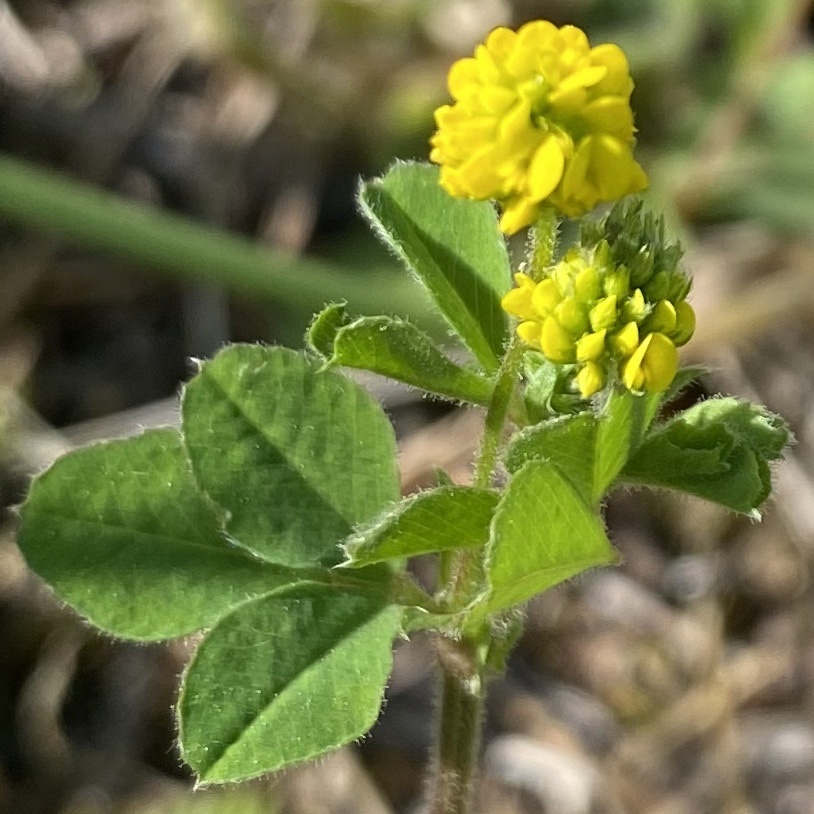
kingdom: Plantae
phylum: Tracheophyta
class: Magnoliopsida
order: Fabales
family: Fabaceae
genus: Medicago
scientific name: Medicago lupulina
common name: Black medick
